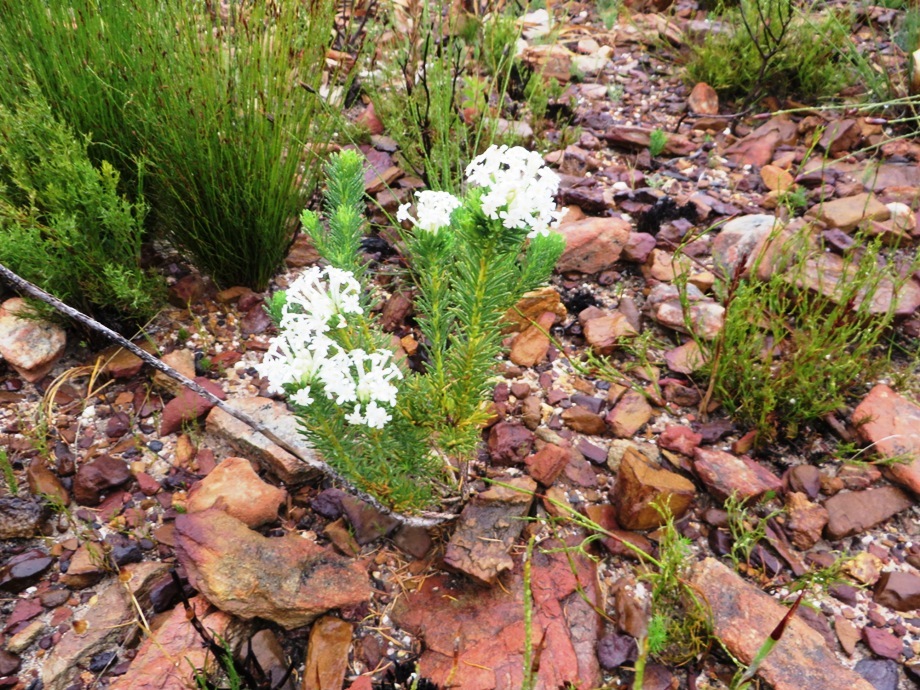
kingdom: Plantae
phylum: Tracheophyta
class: Magnoliopsida
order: Malvales
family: Thymelaeaceae
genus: Gnidia
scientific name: Gnidia pinifolia
